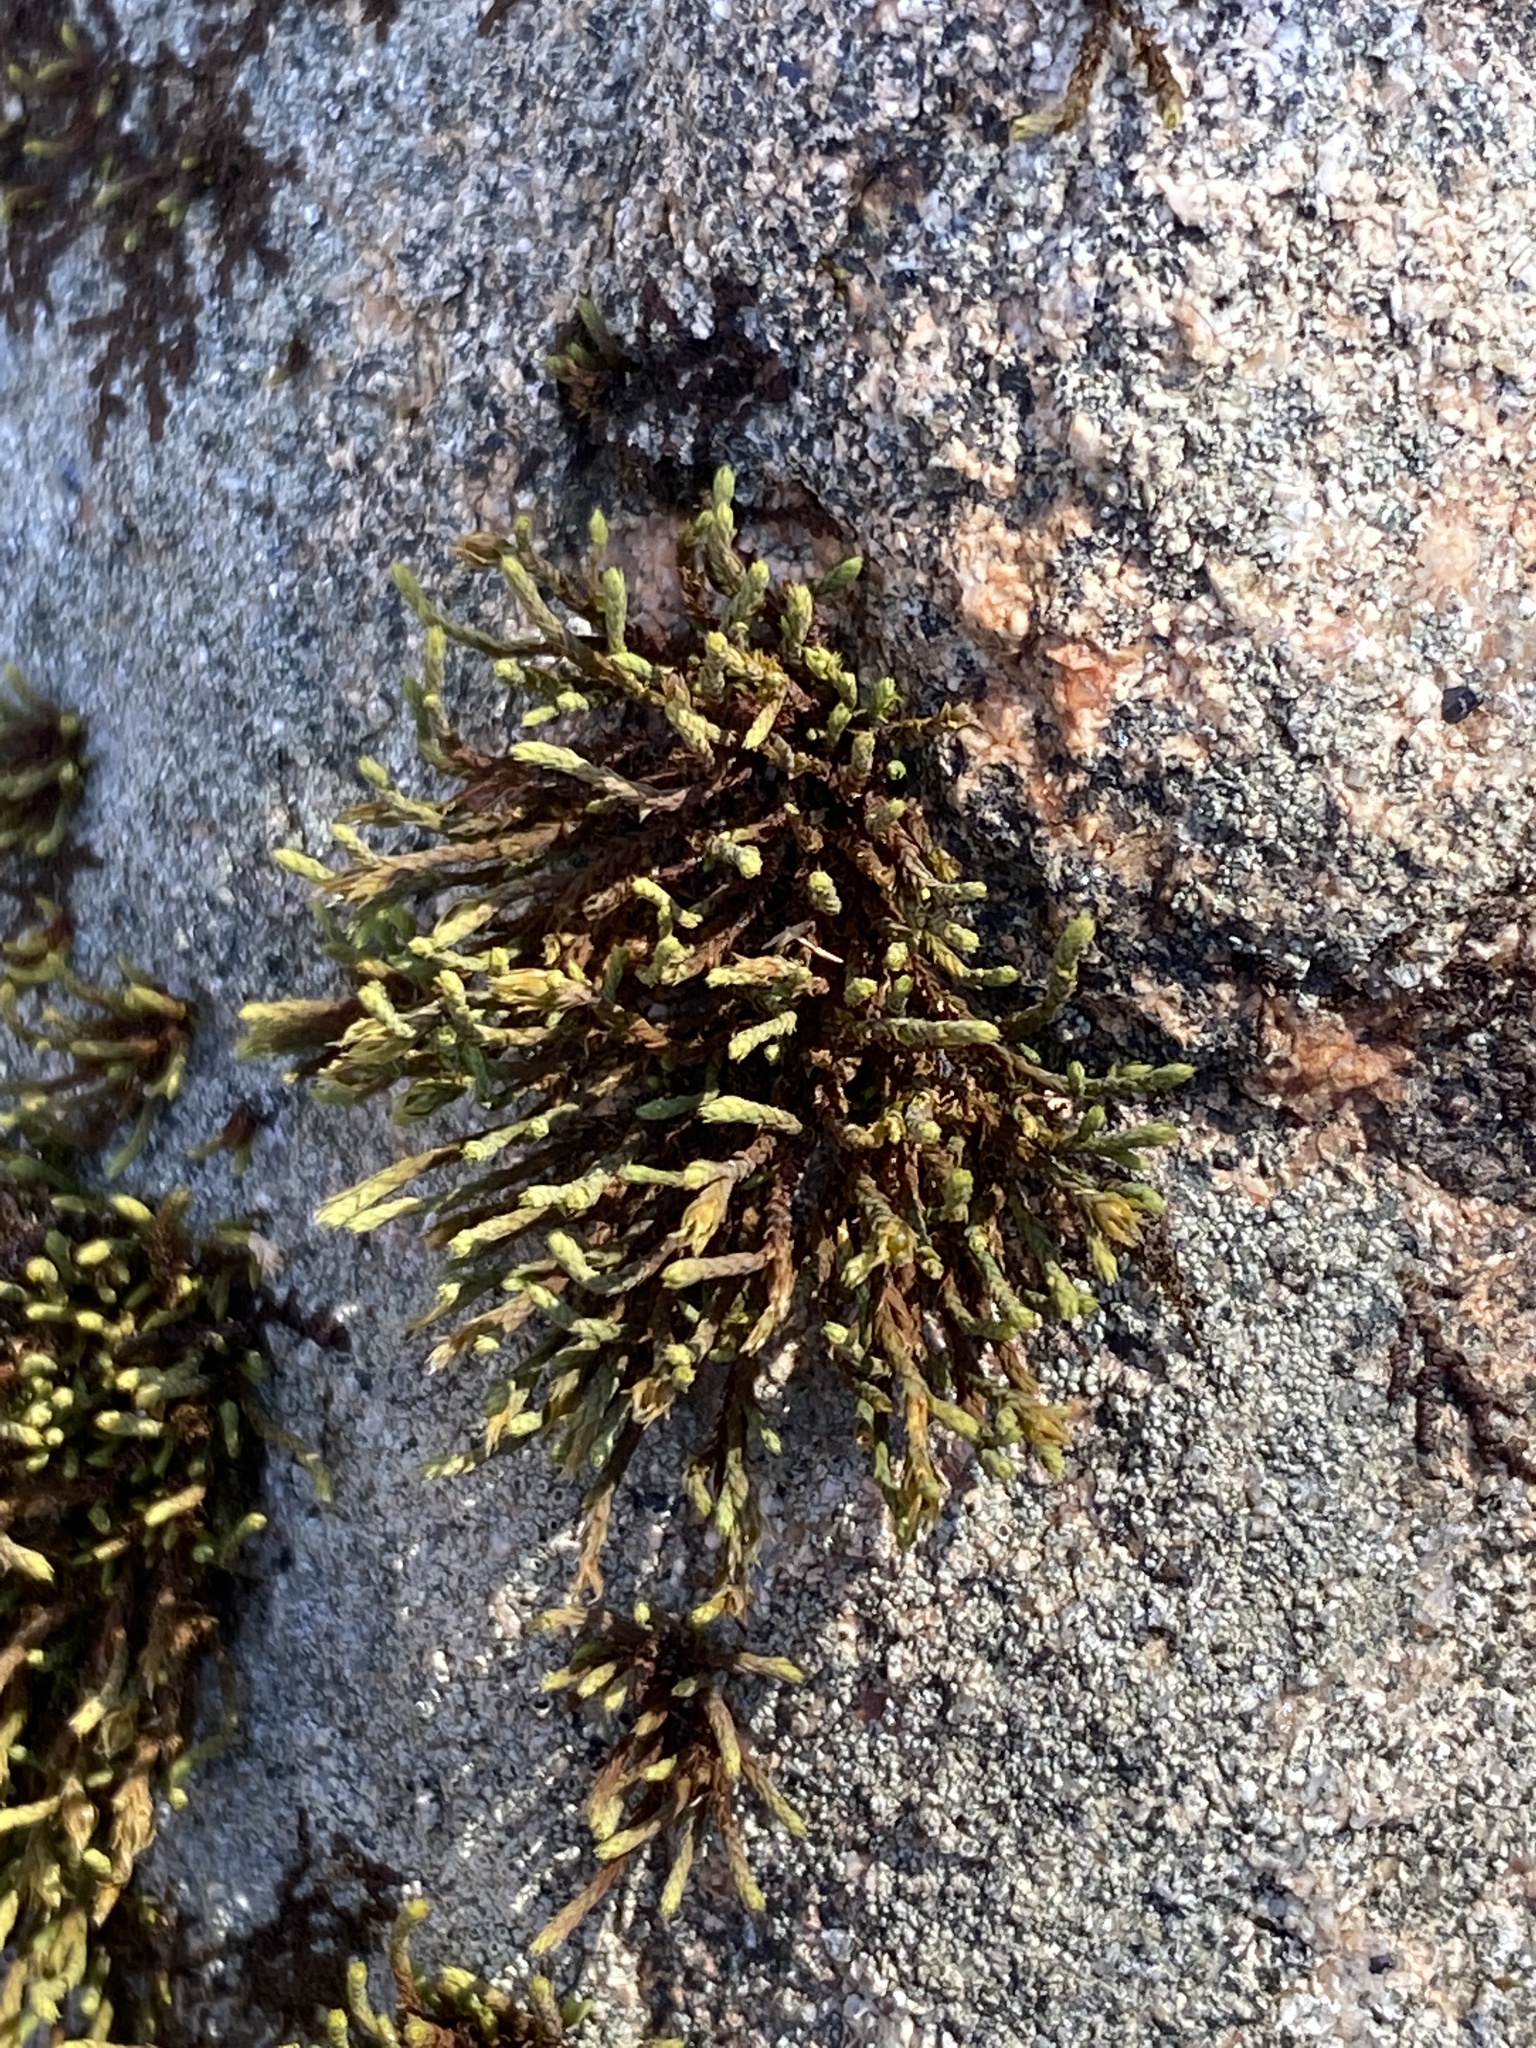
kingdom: Plantae
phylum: Bryophyta
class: Bryopsida
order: Hedwigiales
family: Hedwigiaceae
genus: Hedwigia
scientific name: Hedwigia ciliata
